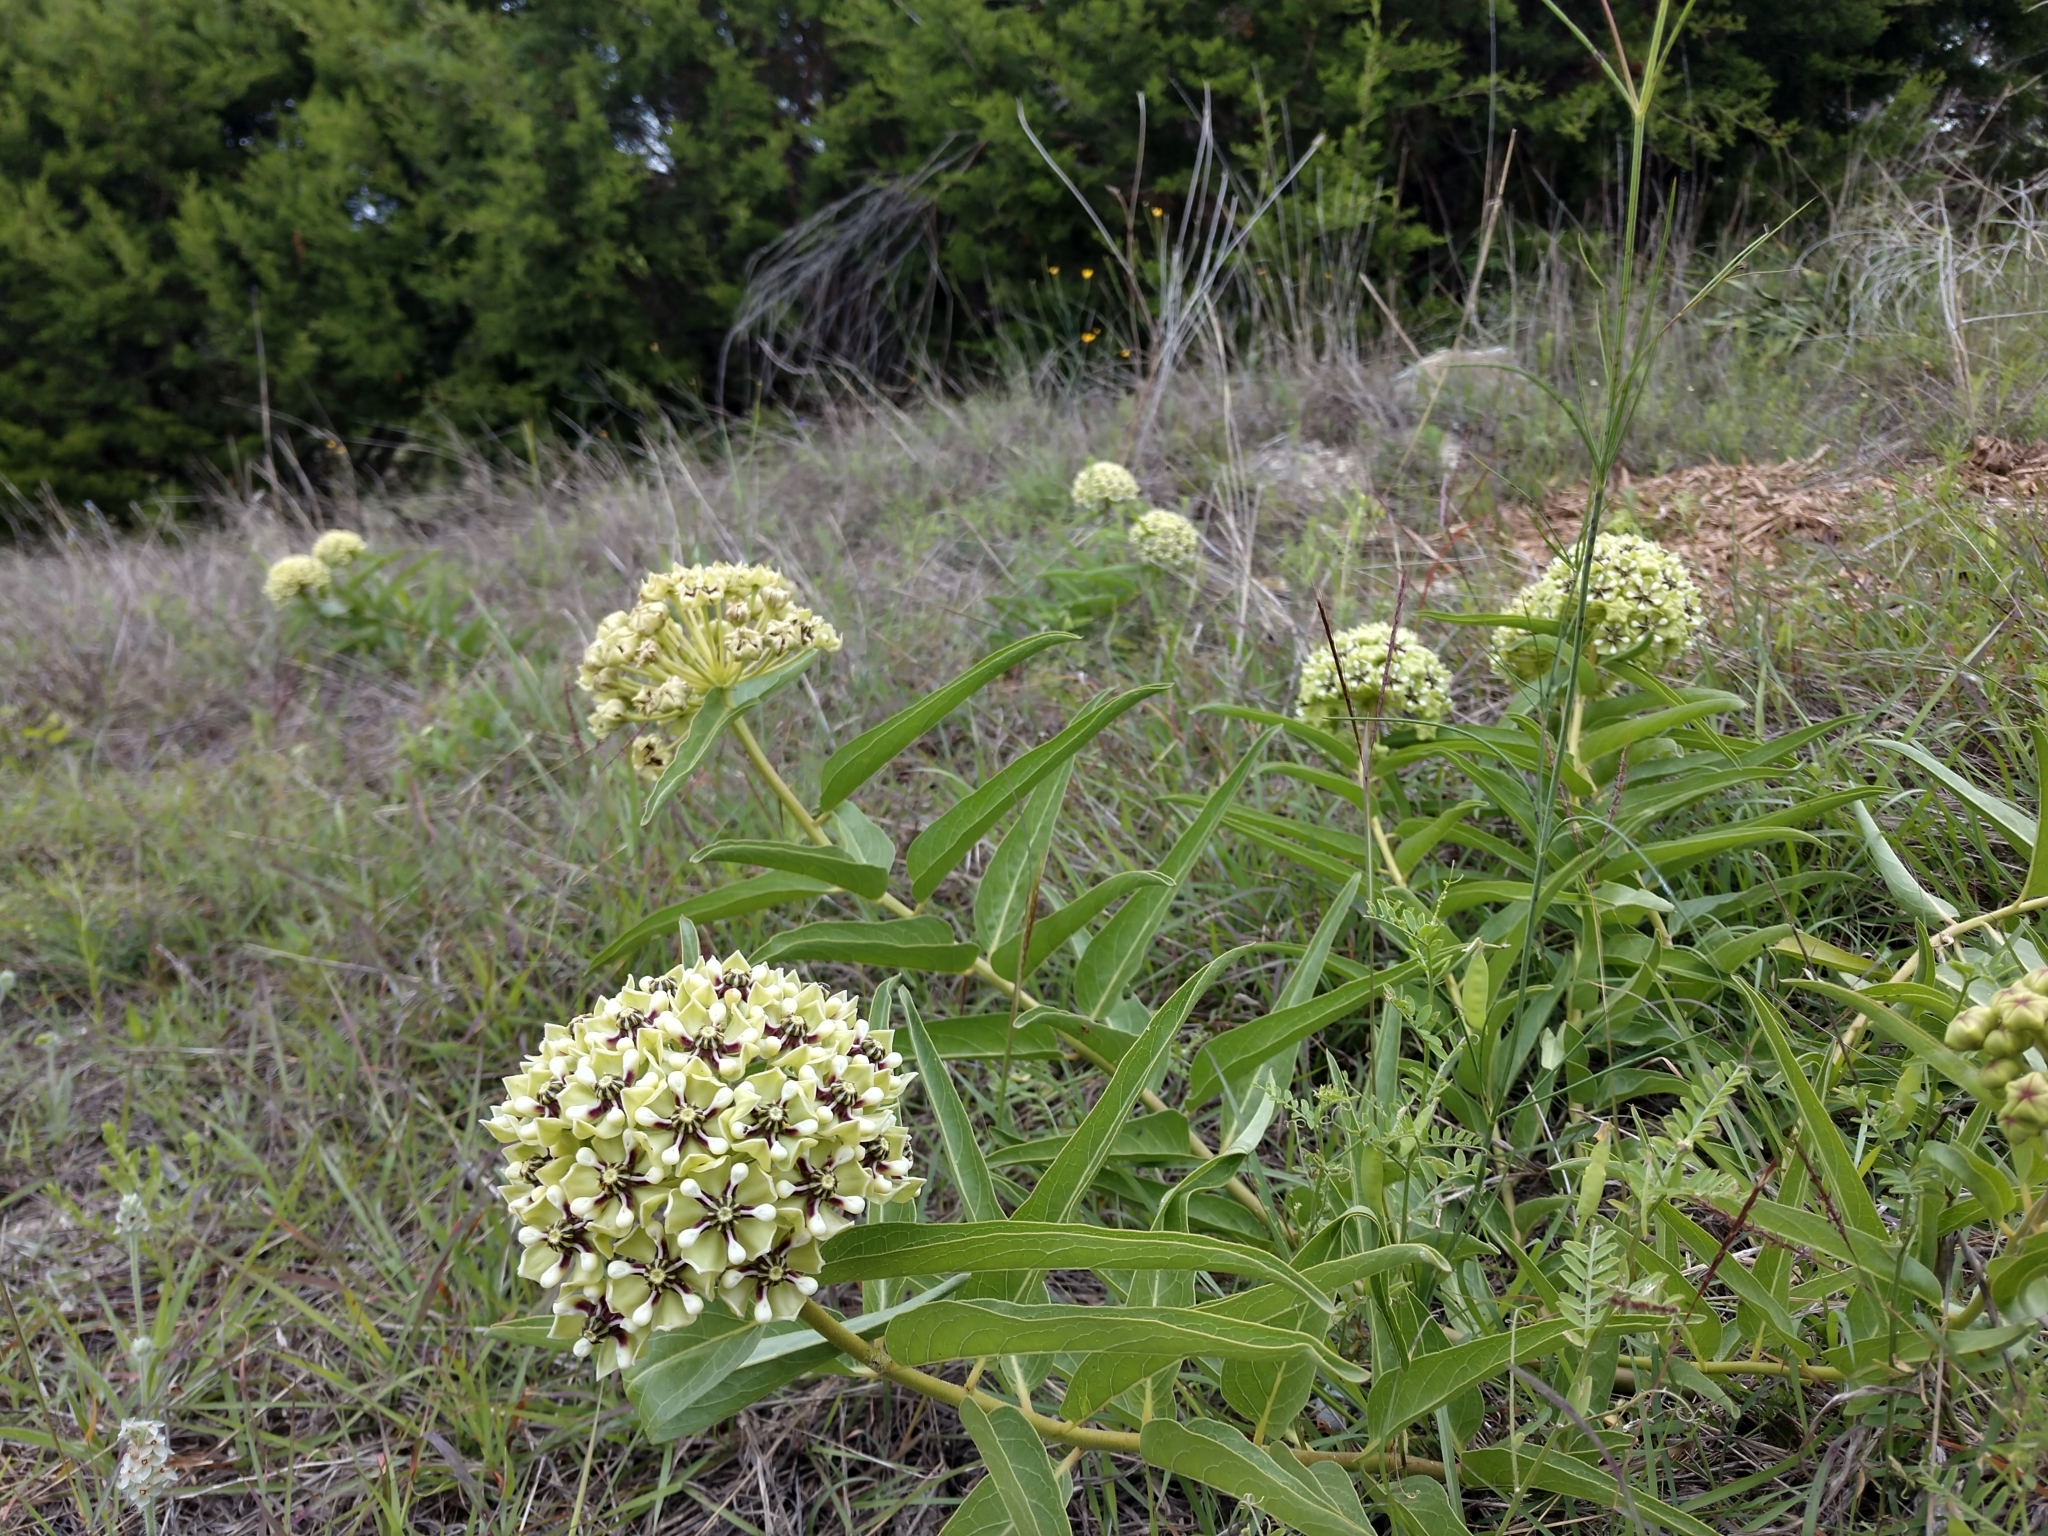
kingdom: Plantae
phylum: Tracheophyta
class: Magnoliopsida
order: Gentianales
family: Apocynaceae
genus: Asclepias
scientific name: Asclepias asperula
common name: Antelope horns
